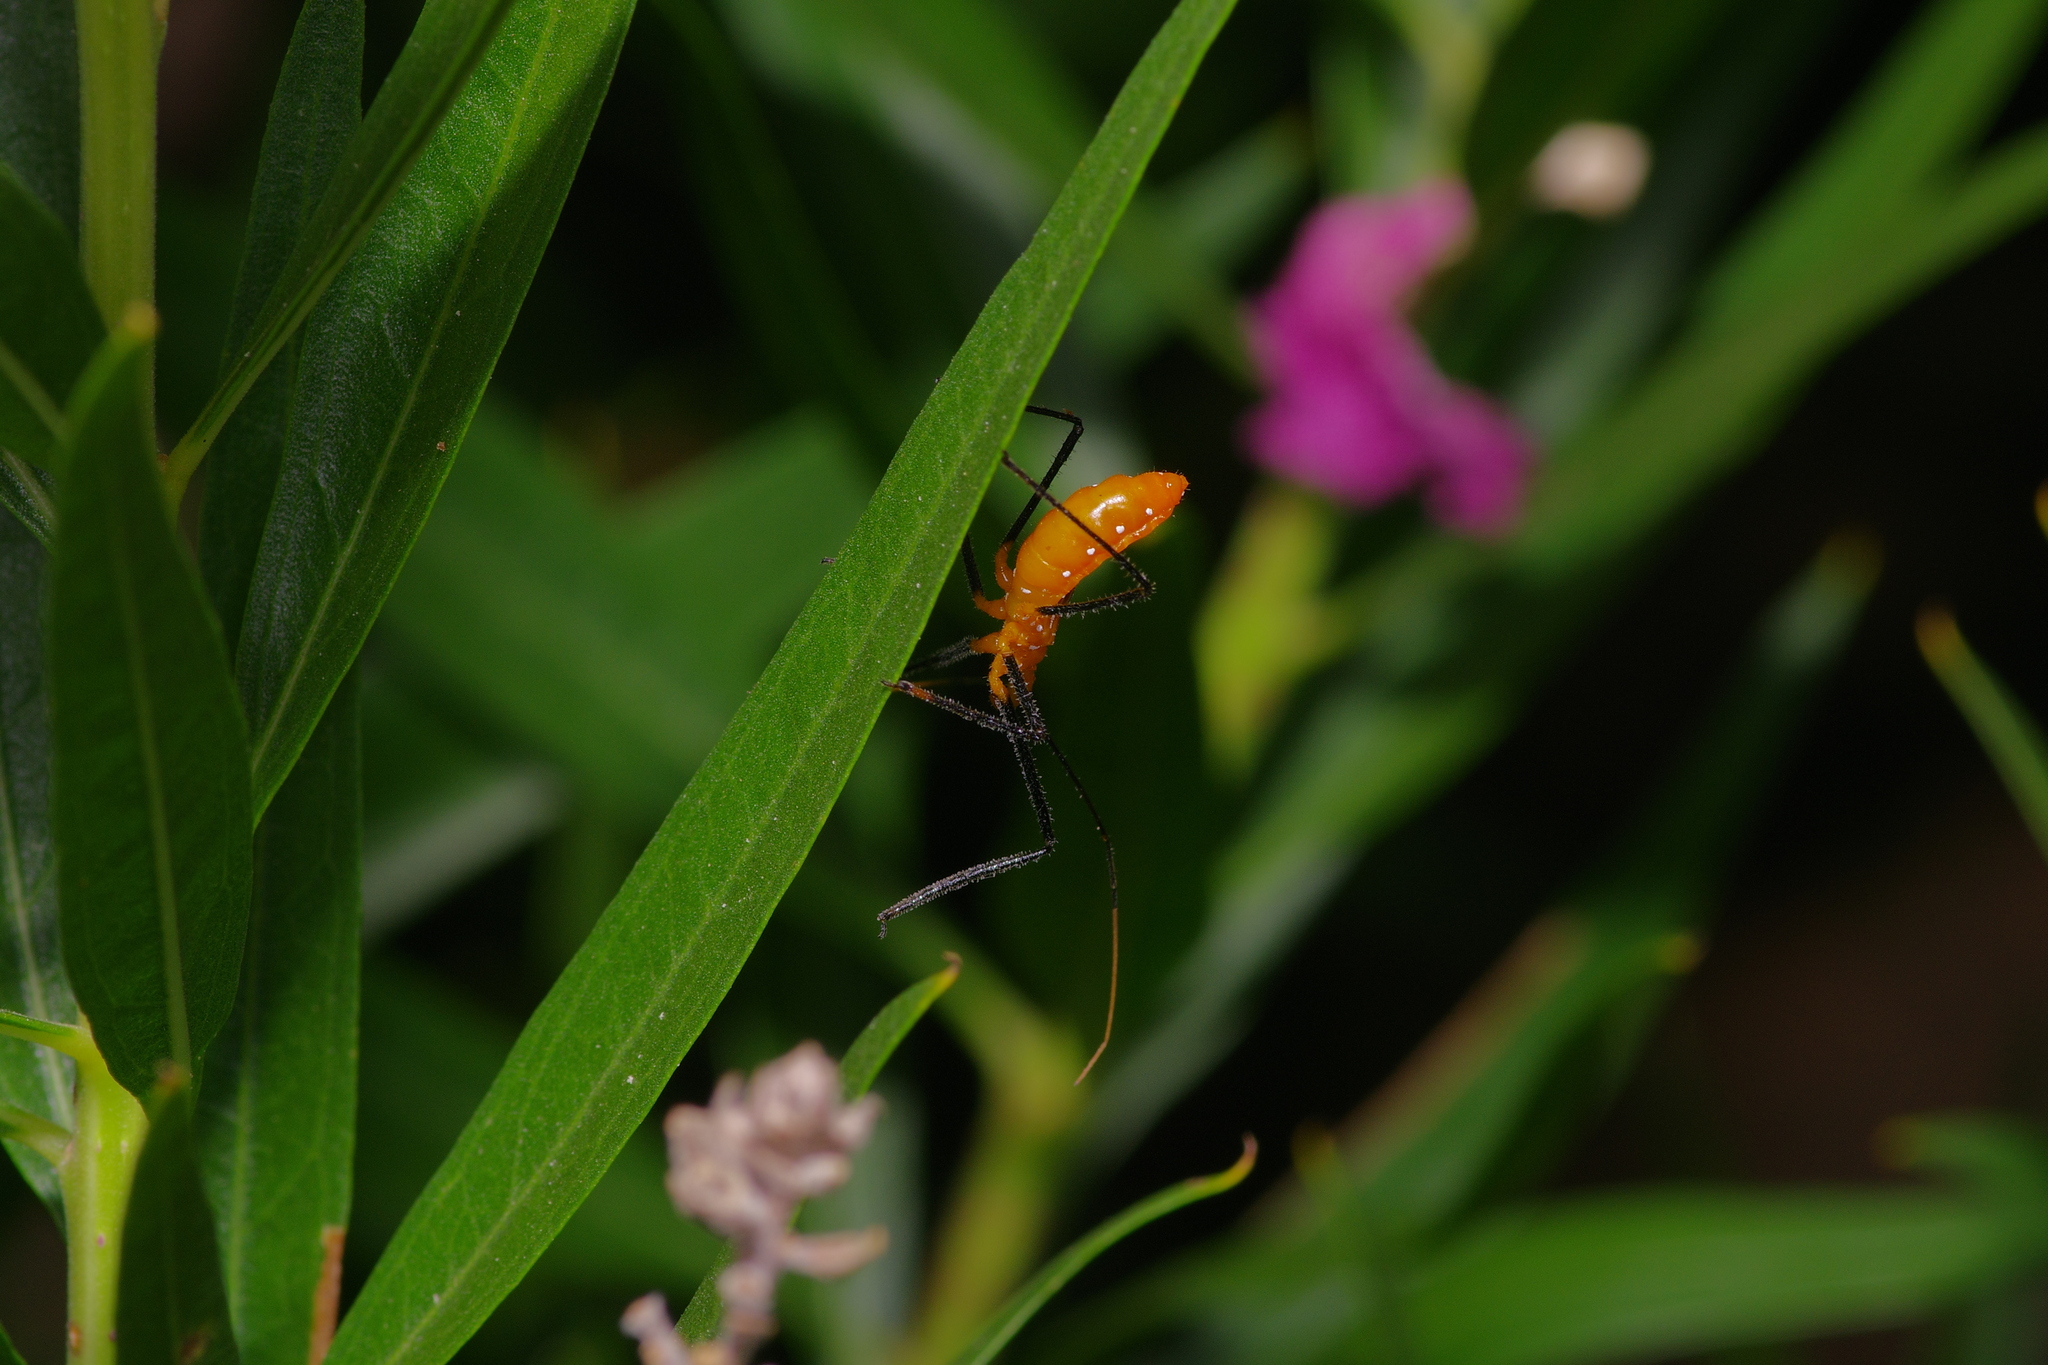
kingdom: Animalia
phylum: Arthropoda
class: Insecta
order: Hemiptera
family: Reduviidae
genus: Zelus
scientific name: Zelus longipes
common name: Milkweed assassin bug
